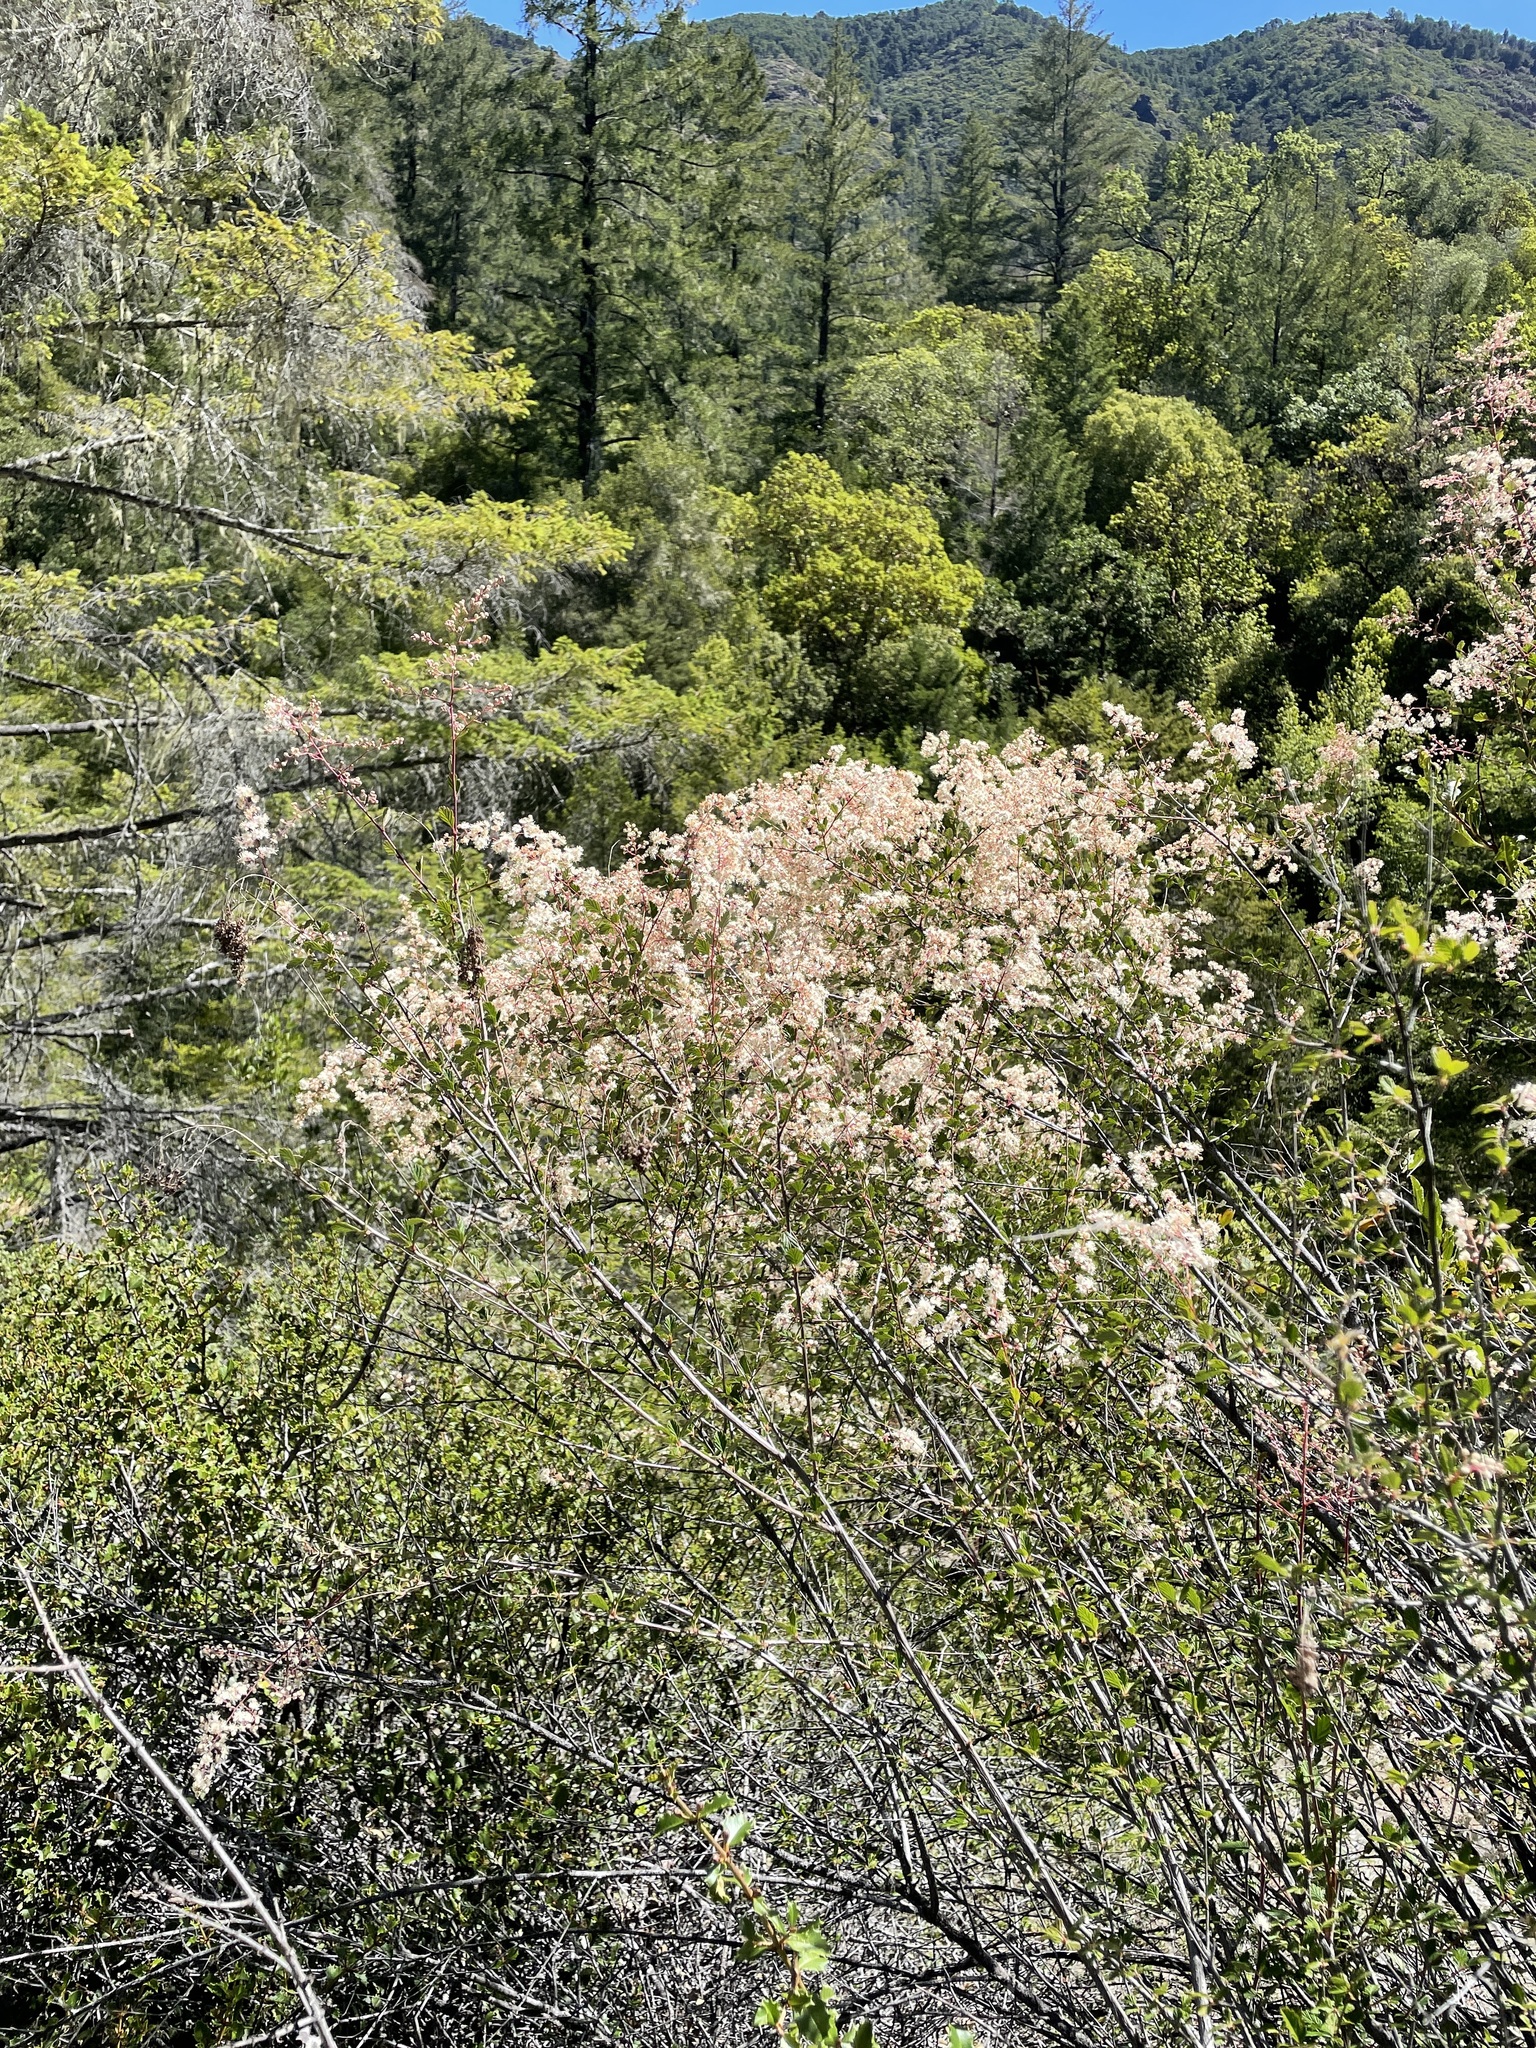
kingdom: Plantae
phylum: Tracheophyta
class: Magnoliopsida
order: Rosales
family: Rosaceae
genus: Holodiscus
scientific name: Holodiscus discolor
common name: Oceanspray
